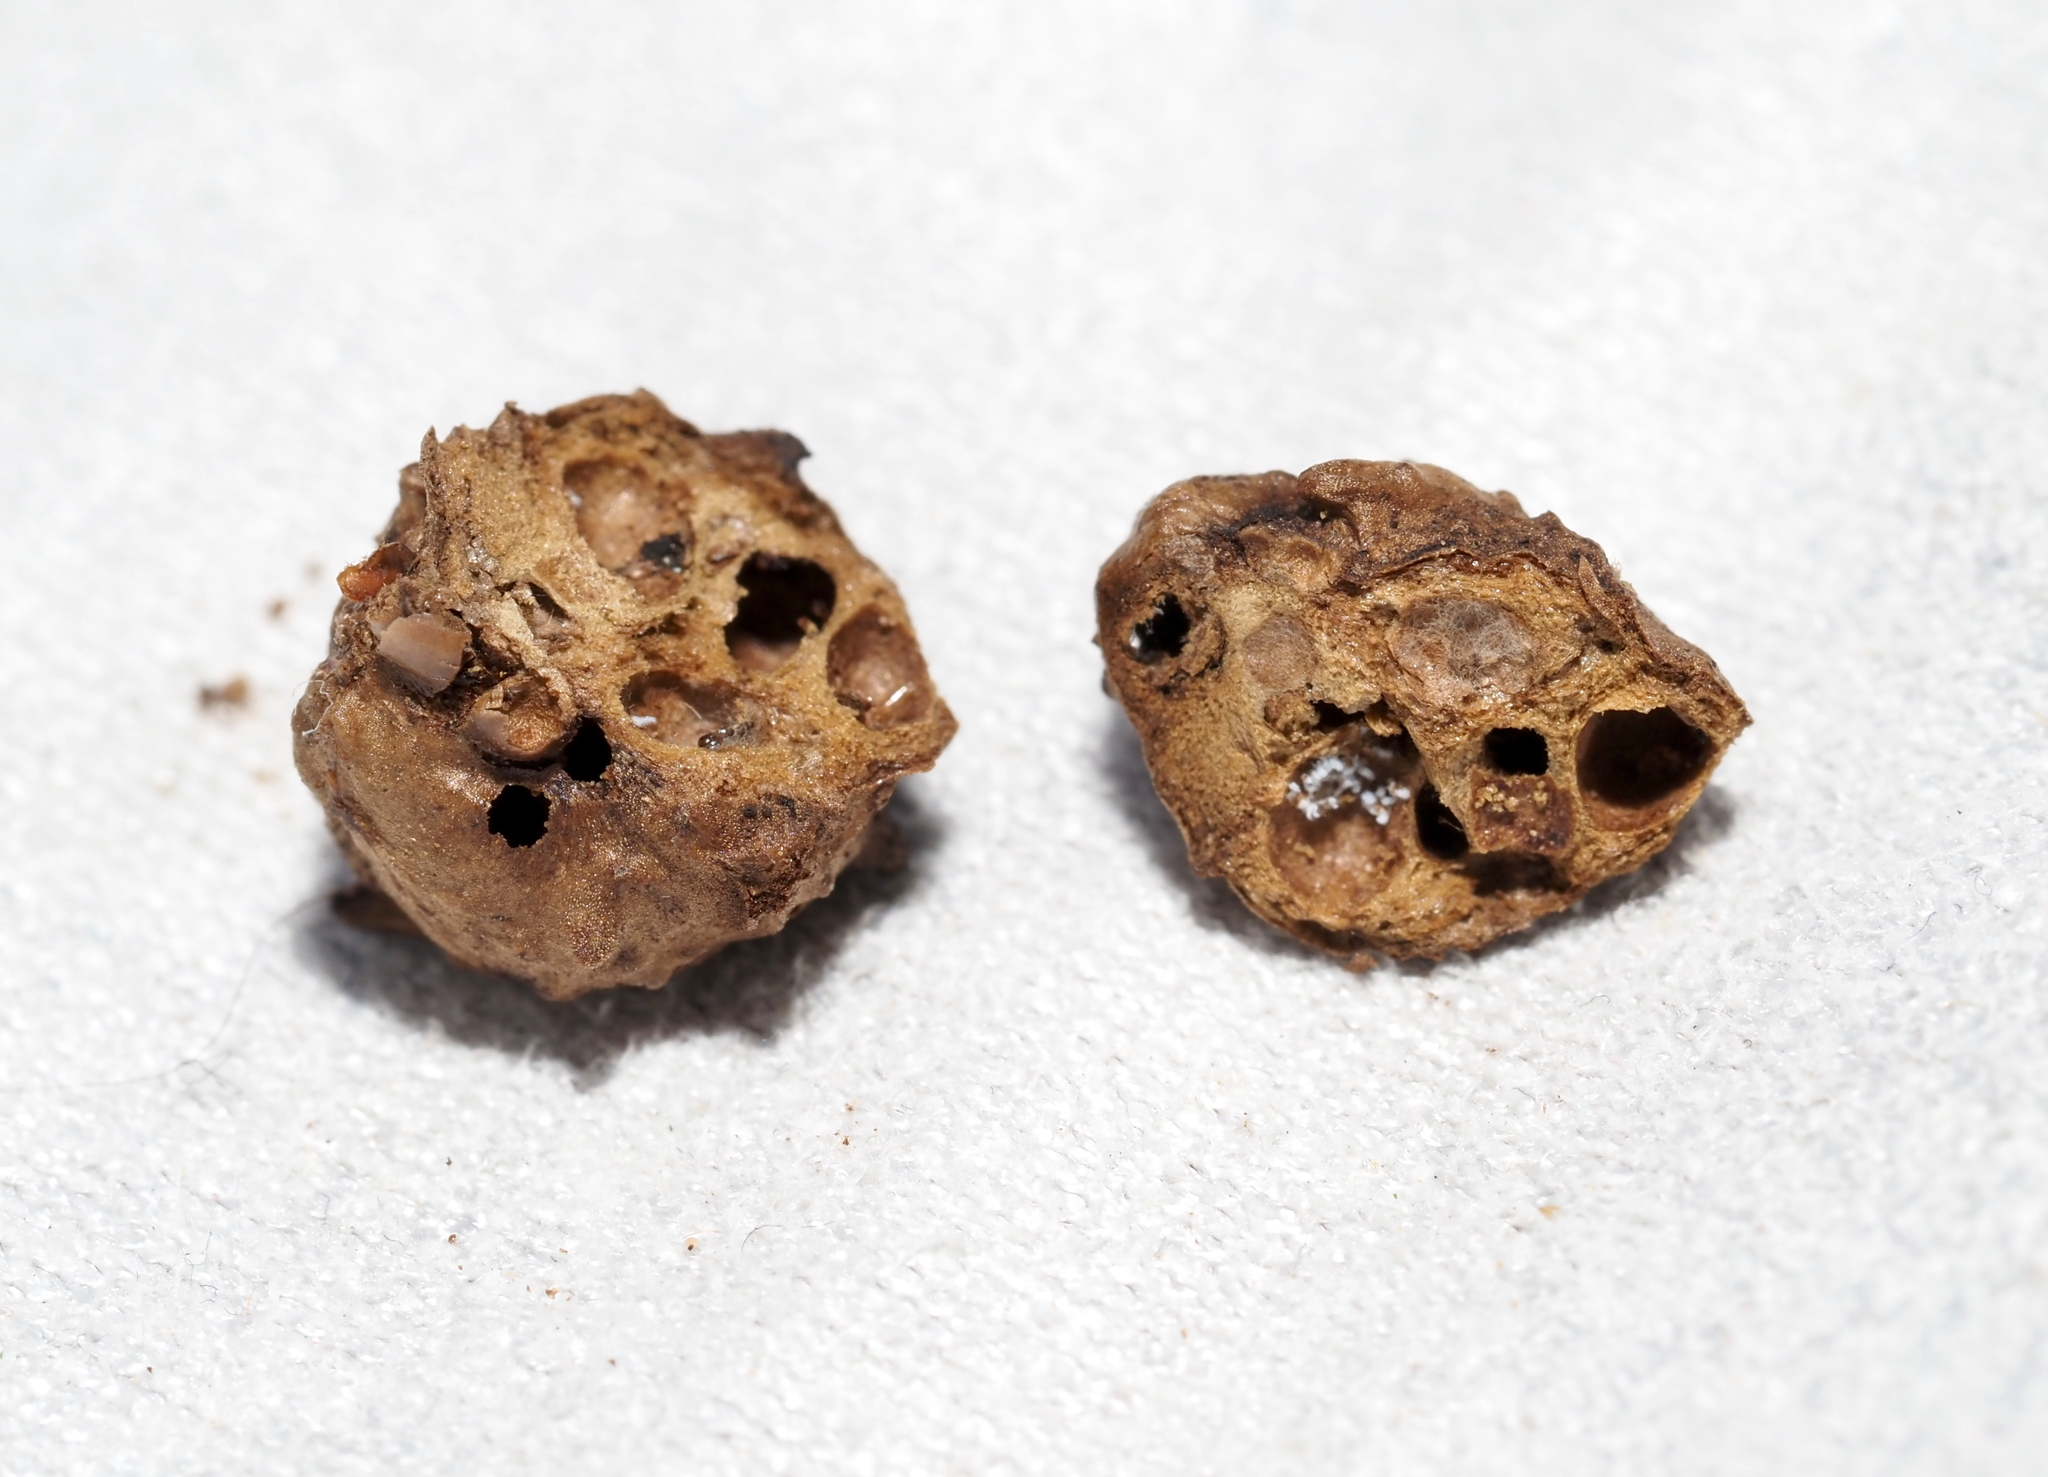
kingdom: Animalia
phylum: Arthropoda
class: Insecta
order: Hymenoptera
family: Cynipidae
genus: Andricus
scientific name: Andricus
